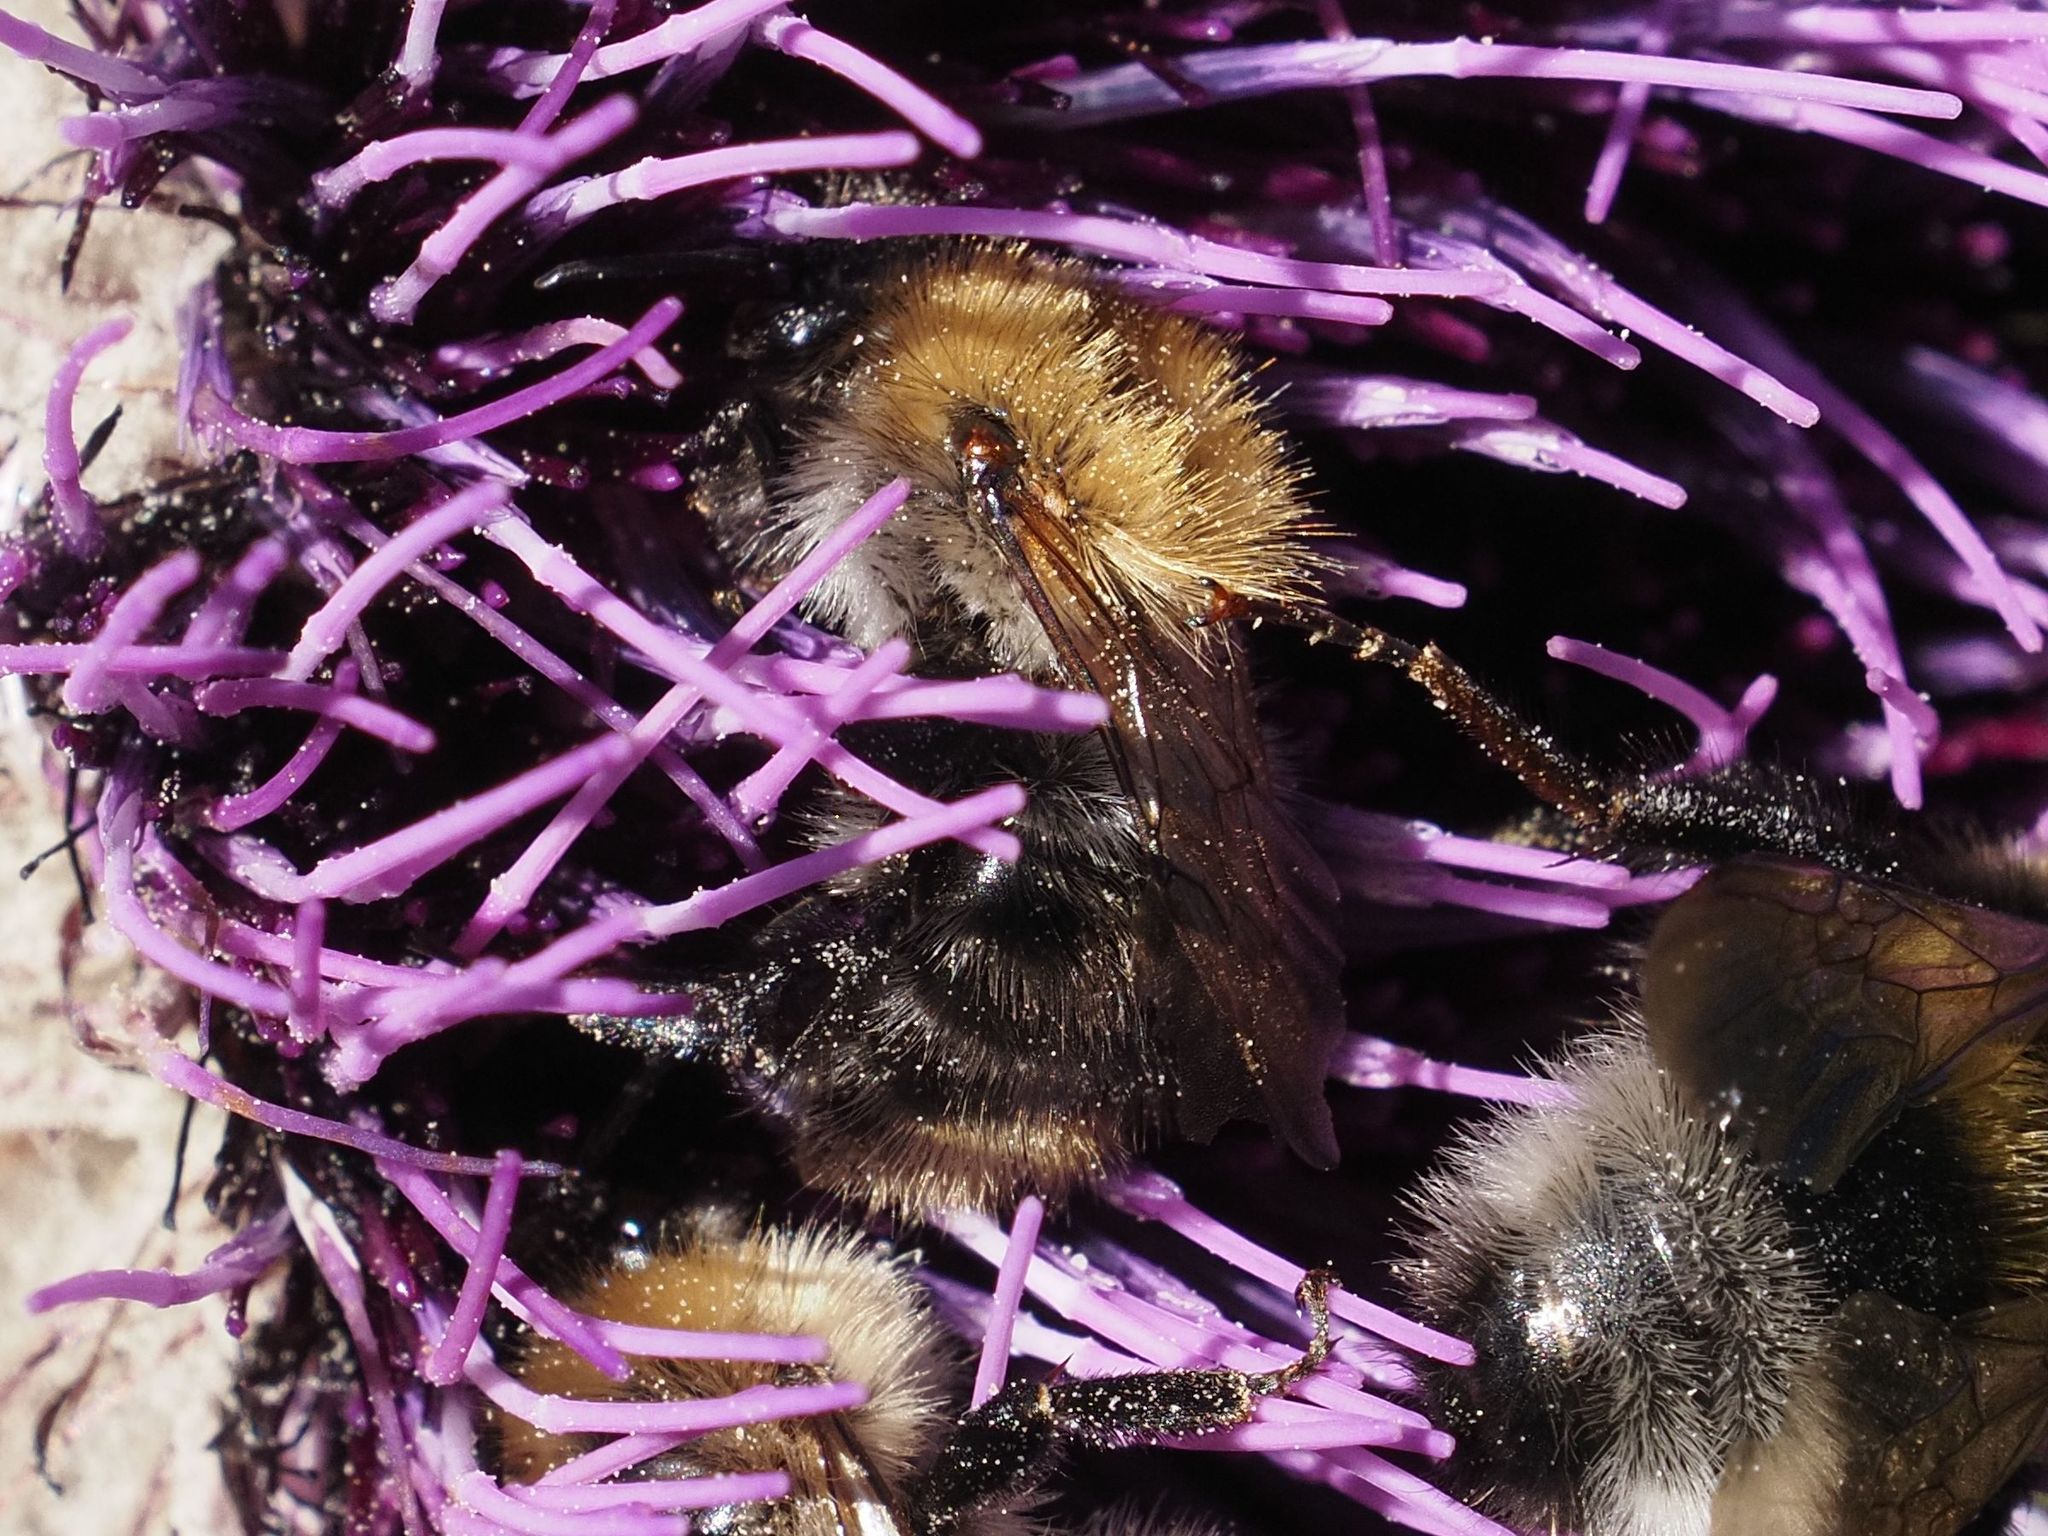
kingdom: Animalia
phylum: Arthropoda
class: Insecta
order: Hymenoptera
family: Apidae
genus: Bombus
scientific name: Bombus pascuorum
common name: Common carder bee
